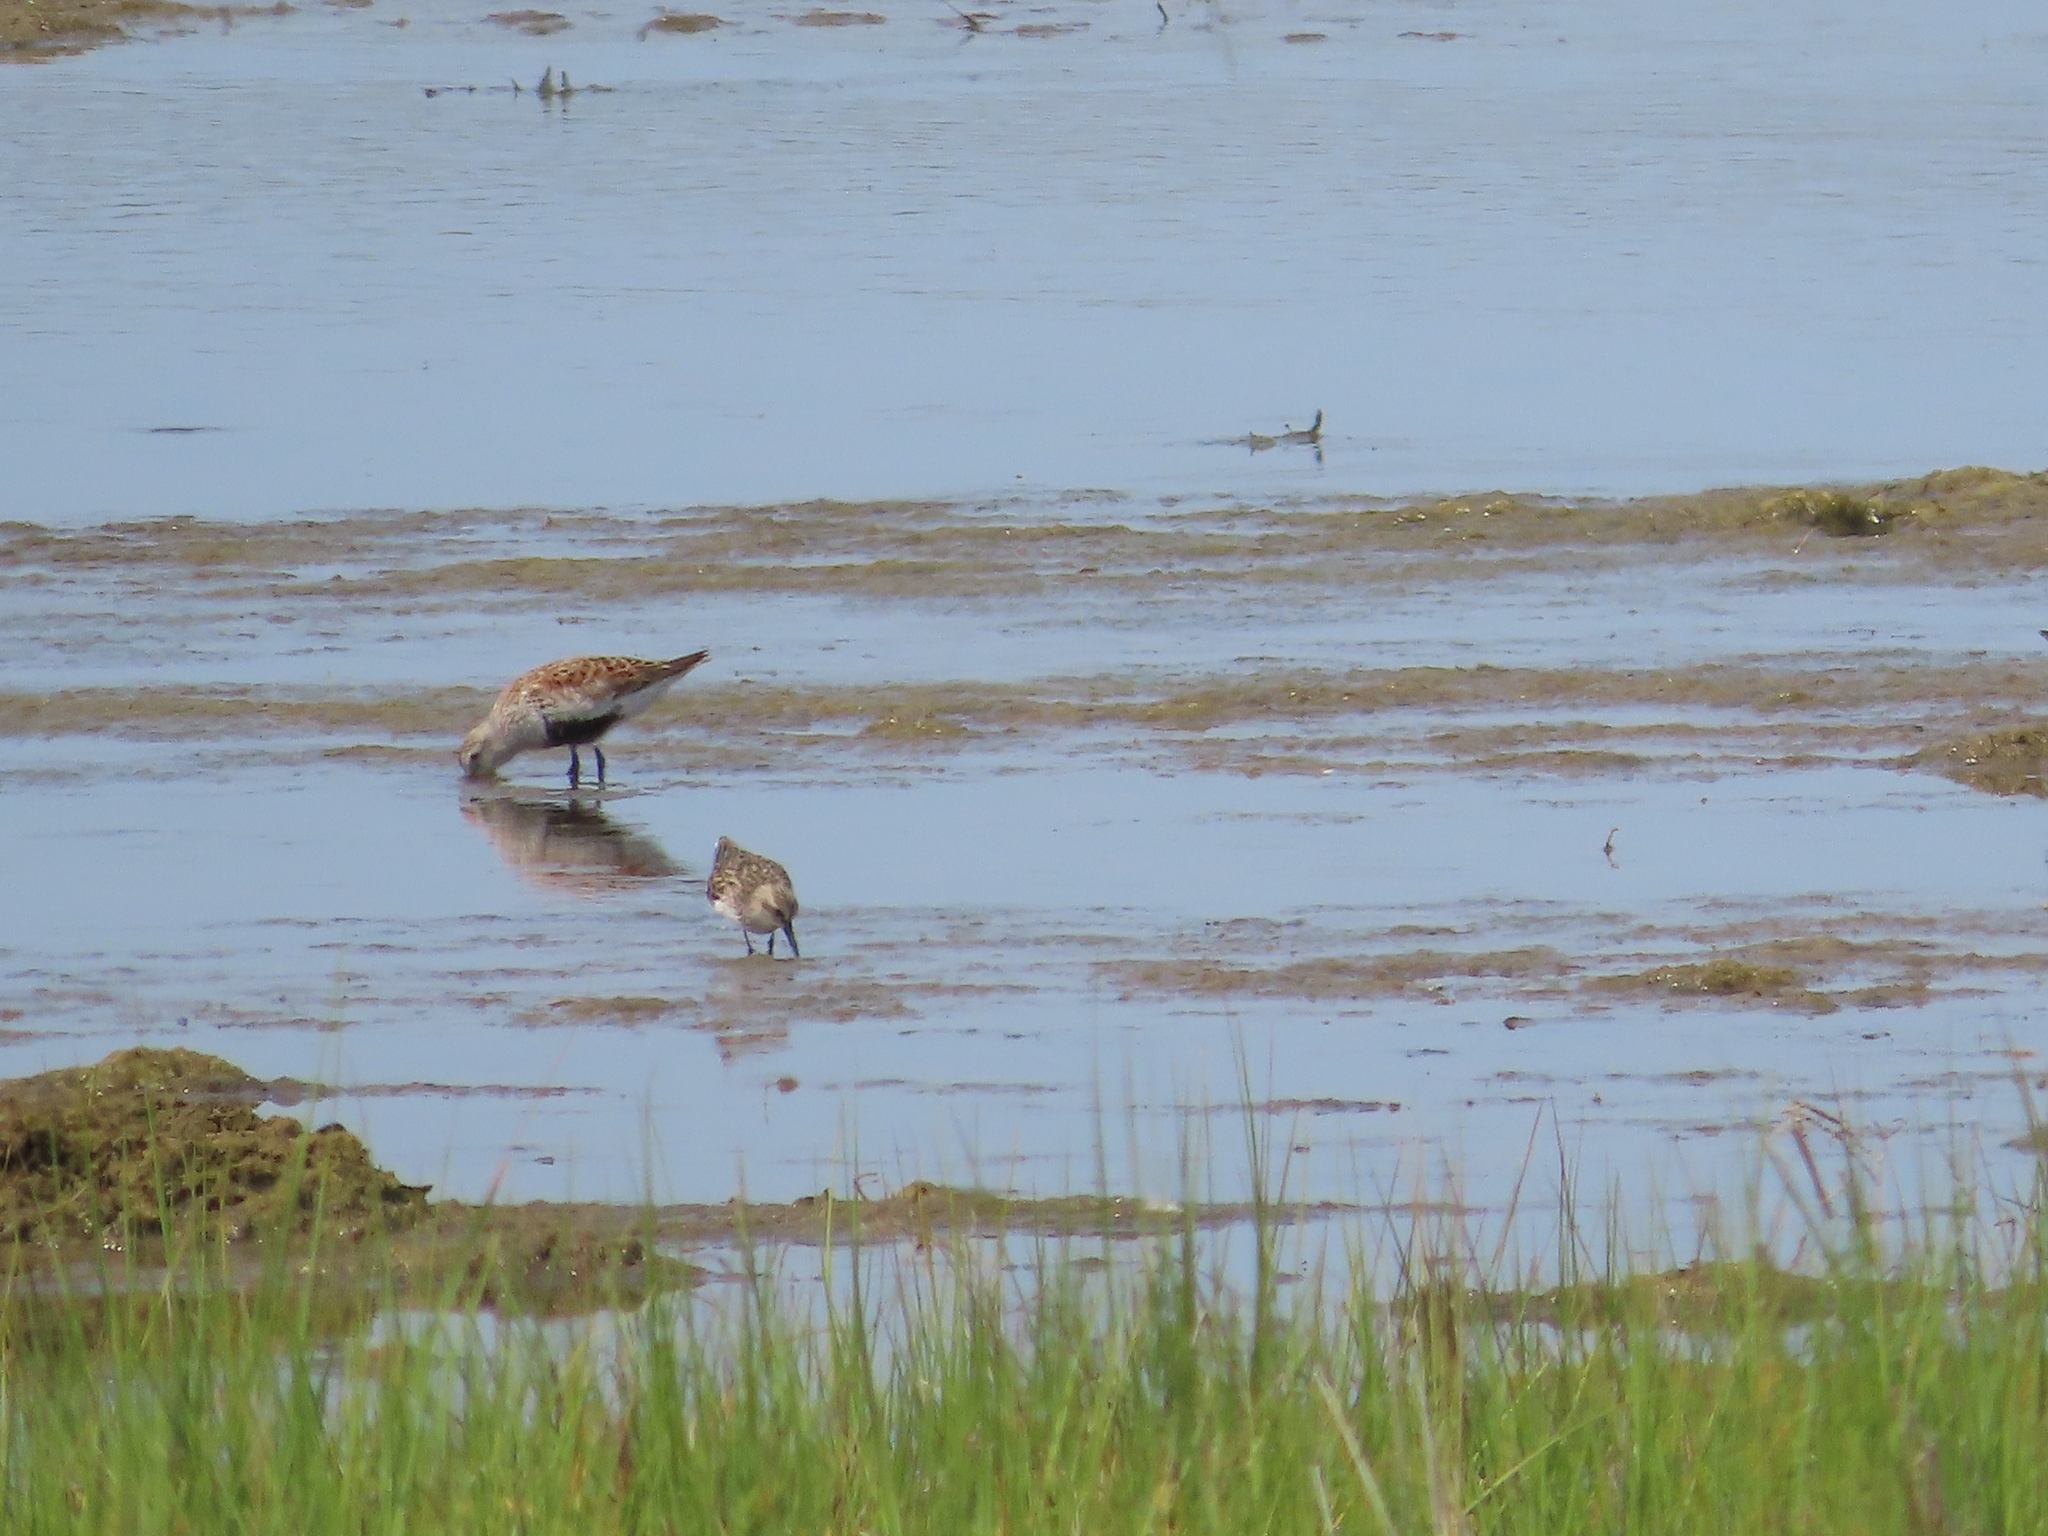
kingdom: Animalia
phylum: Chordata
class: Aves
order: Charadriiformes
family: Scolopacidae
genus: Calidris
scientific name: Calidris minutilla
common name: Least sandpiper
